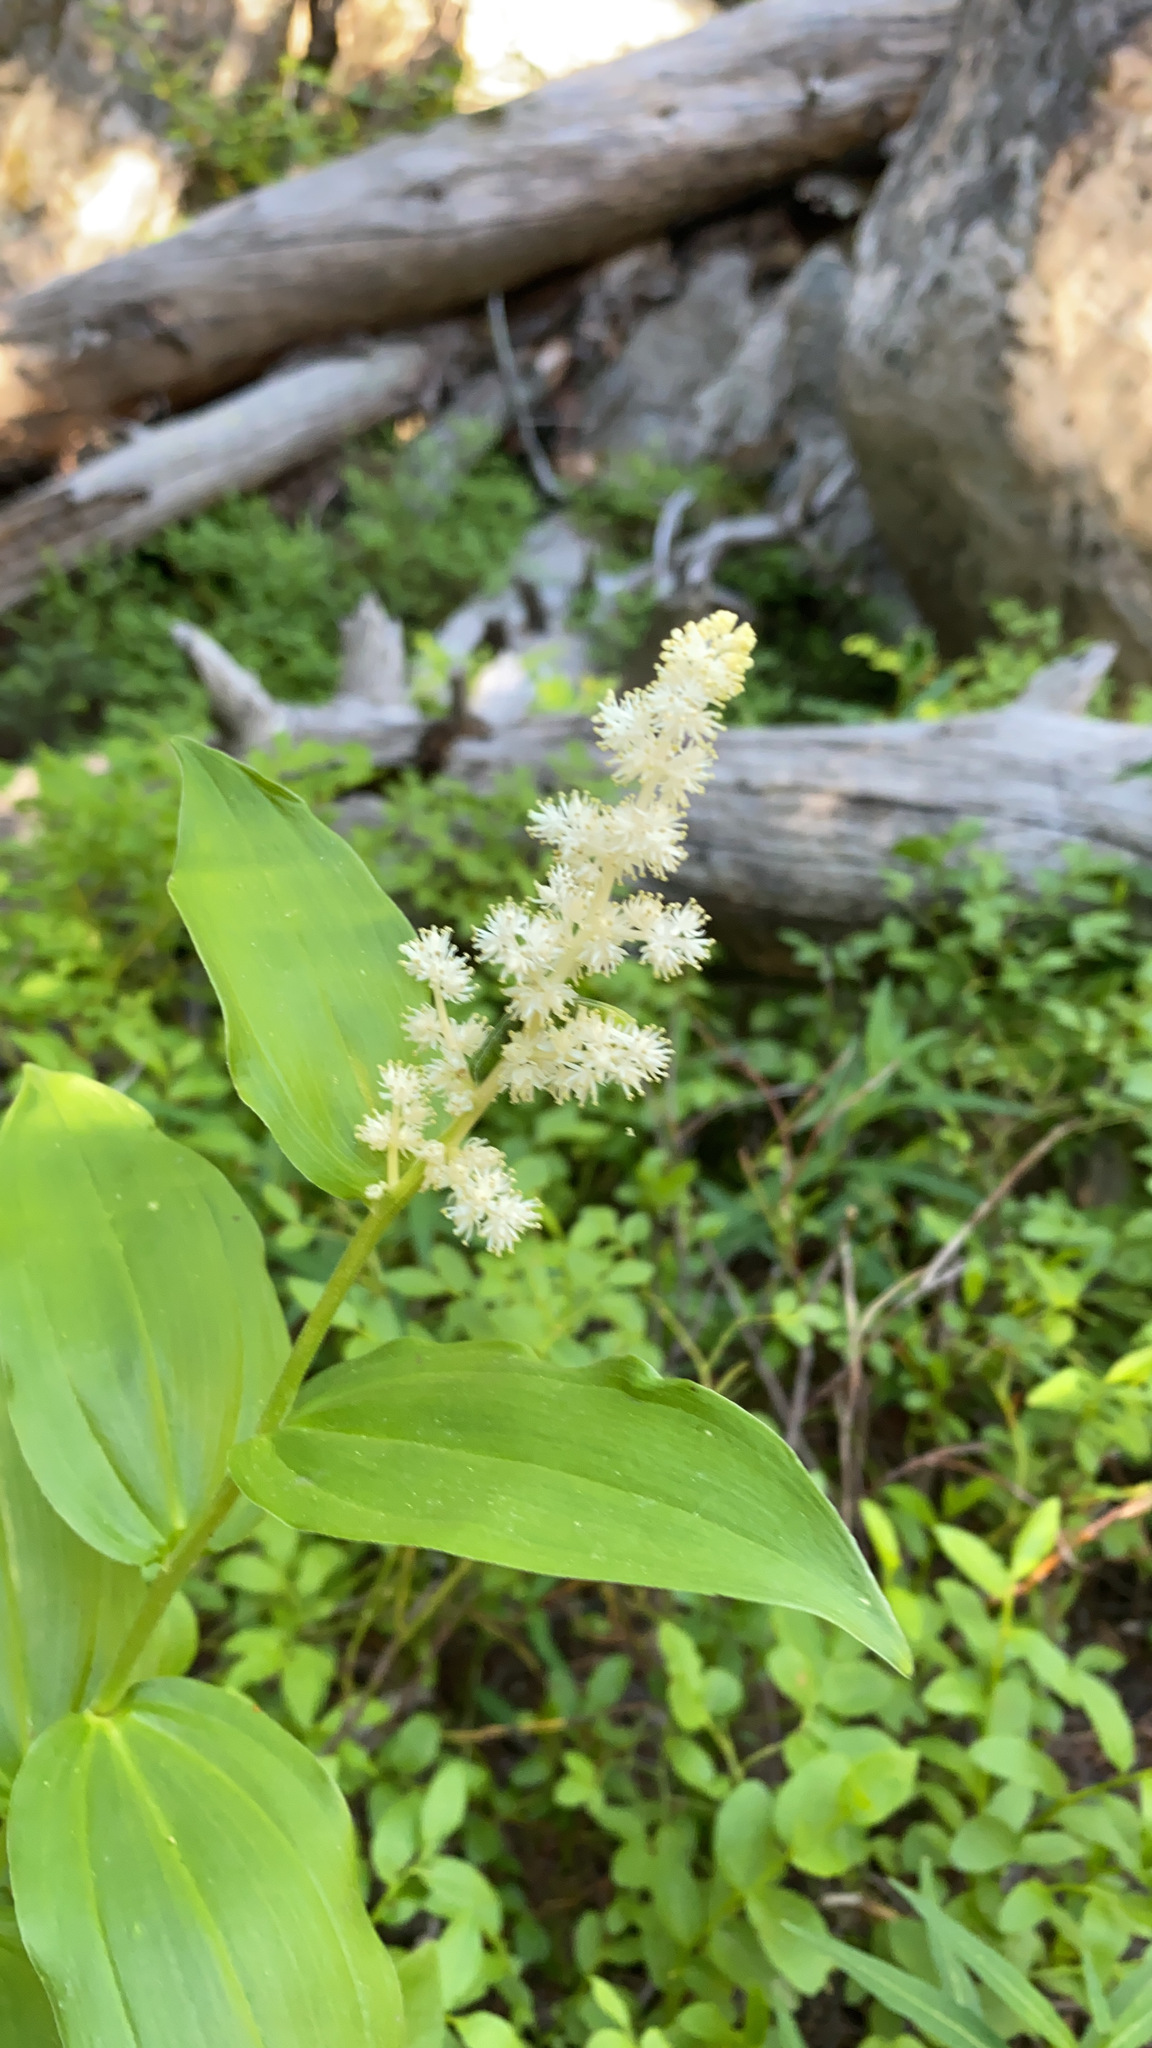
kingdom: Plantae
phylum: Tracheophyta
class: Liliopsida
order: Asparagales
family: Asparagaceae
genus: Maianthemum
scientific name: Maianthemum racemosum
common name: False spikenard
